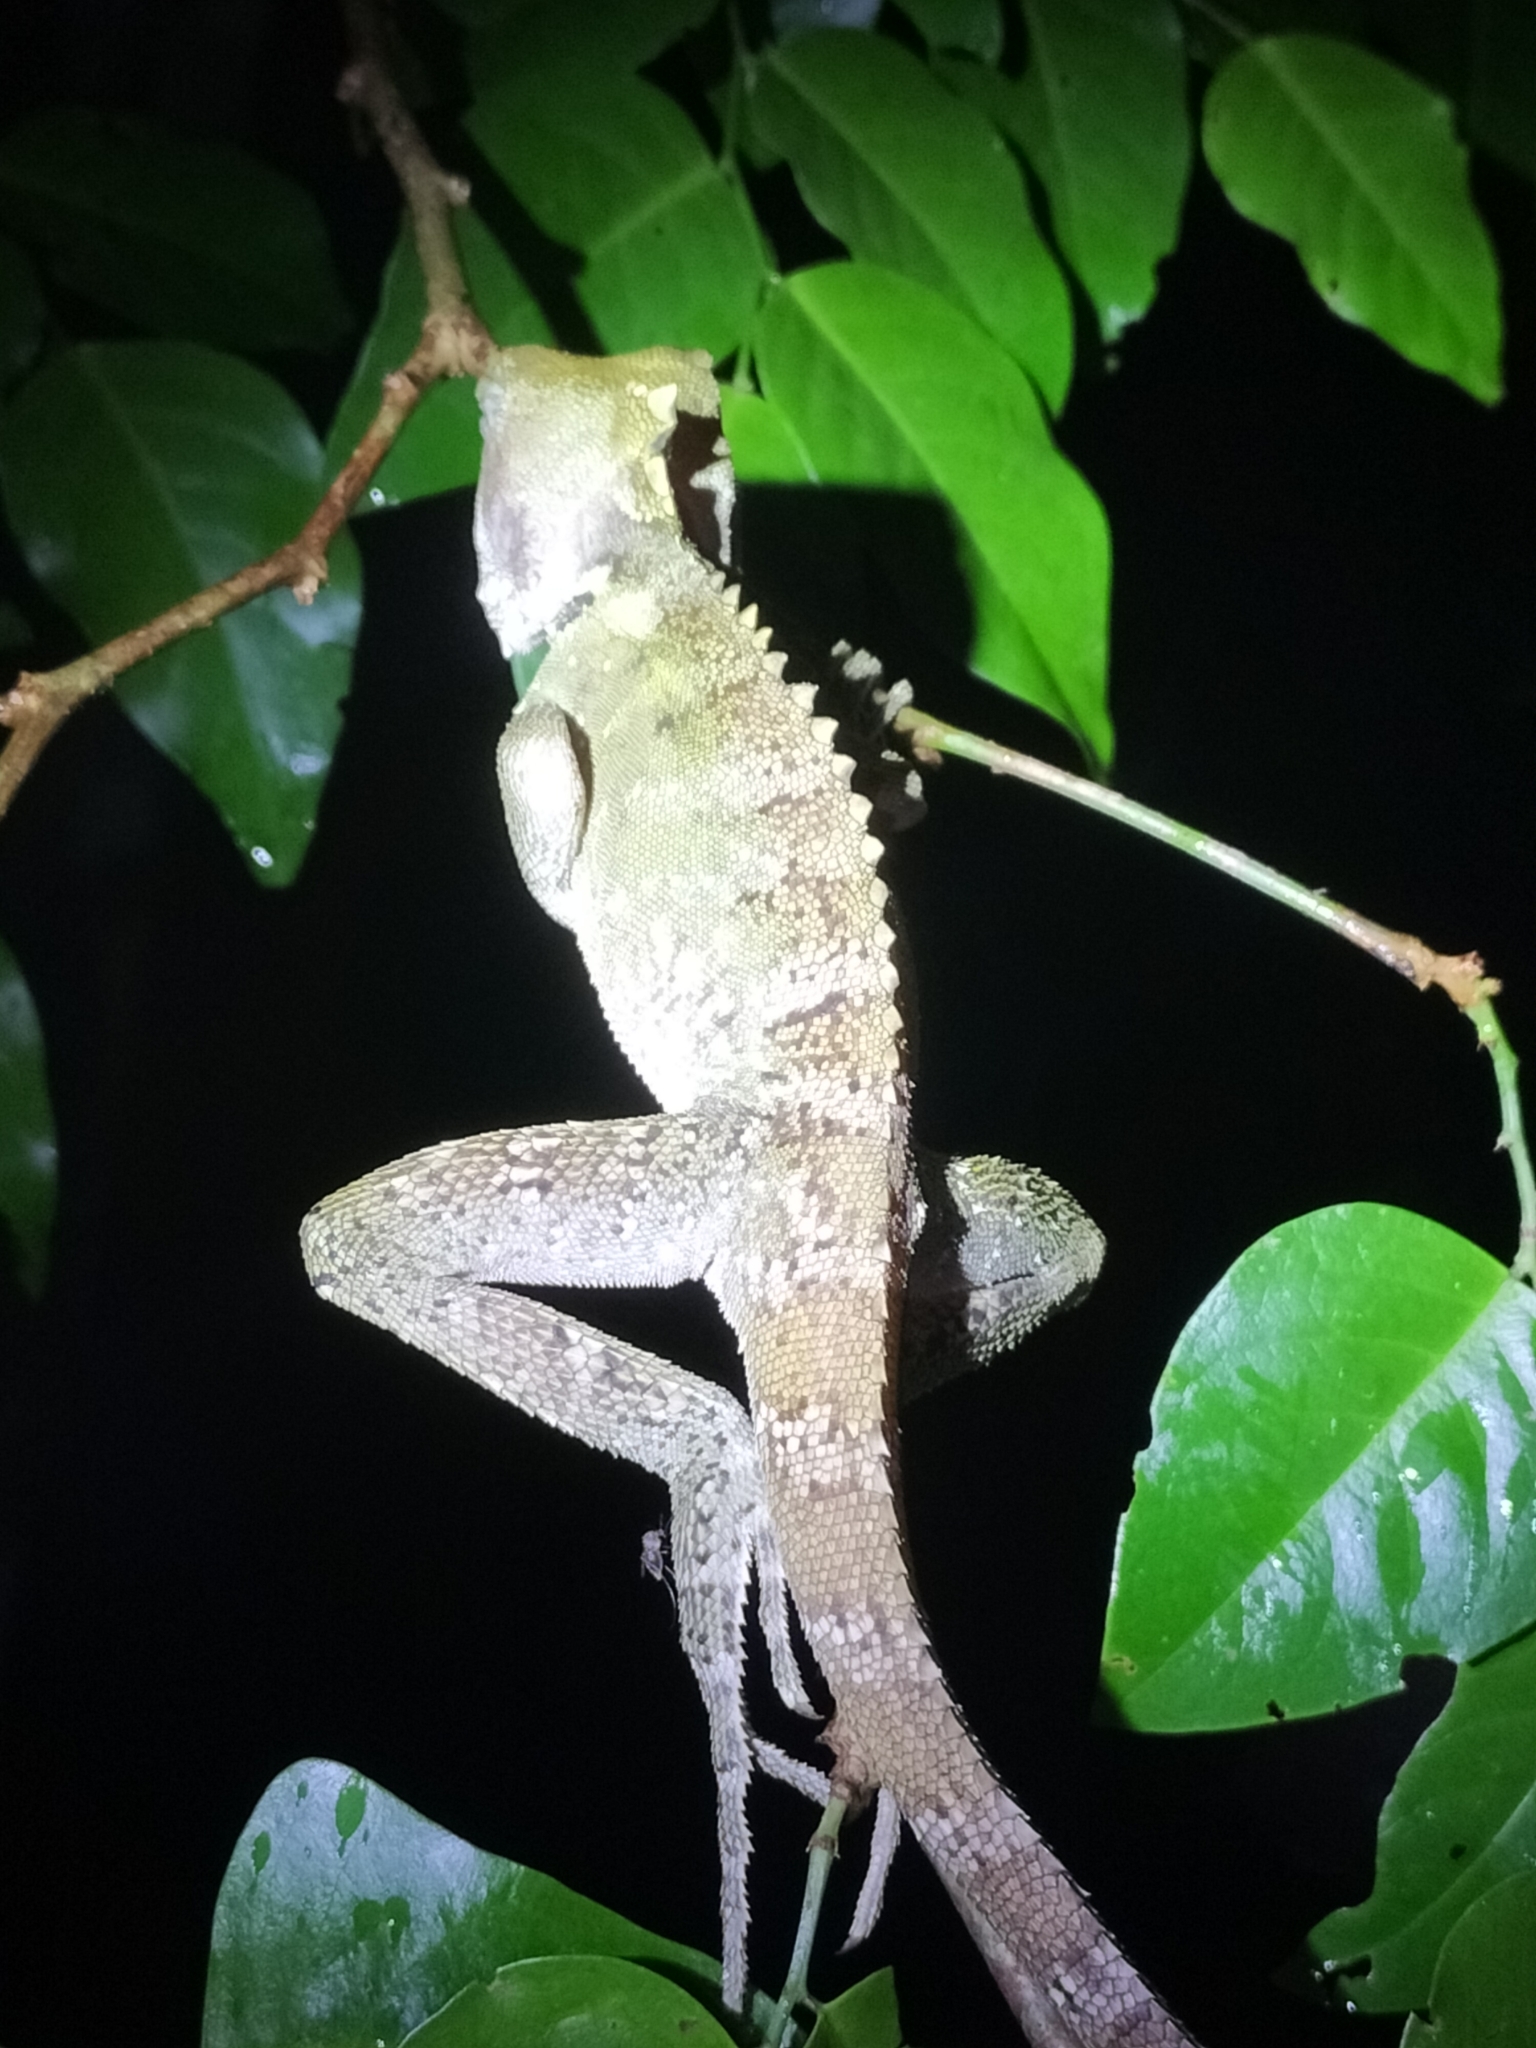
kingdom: Animalia
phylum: Chordata
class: Squamata
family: Agamidae
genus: Lophosaurus
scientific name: Lophosaurus boydii
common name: Boyd's forest dragon
